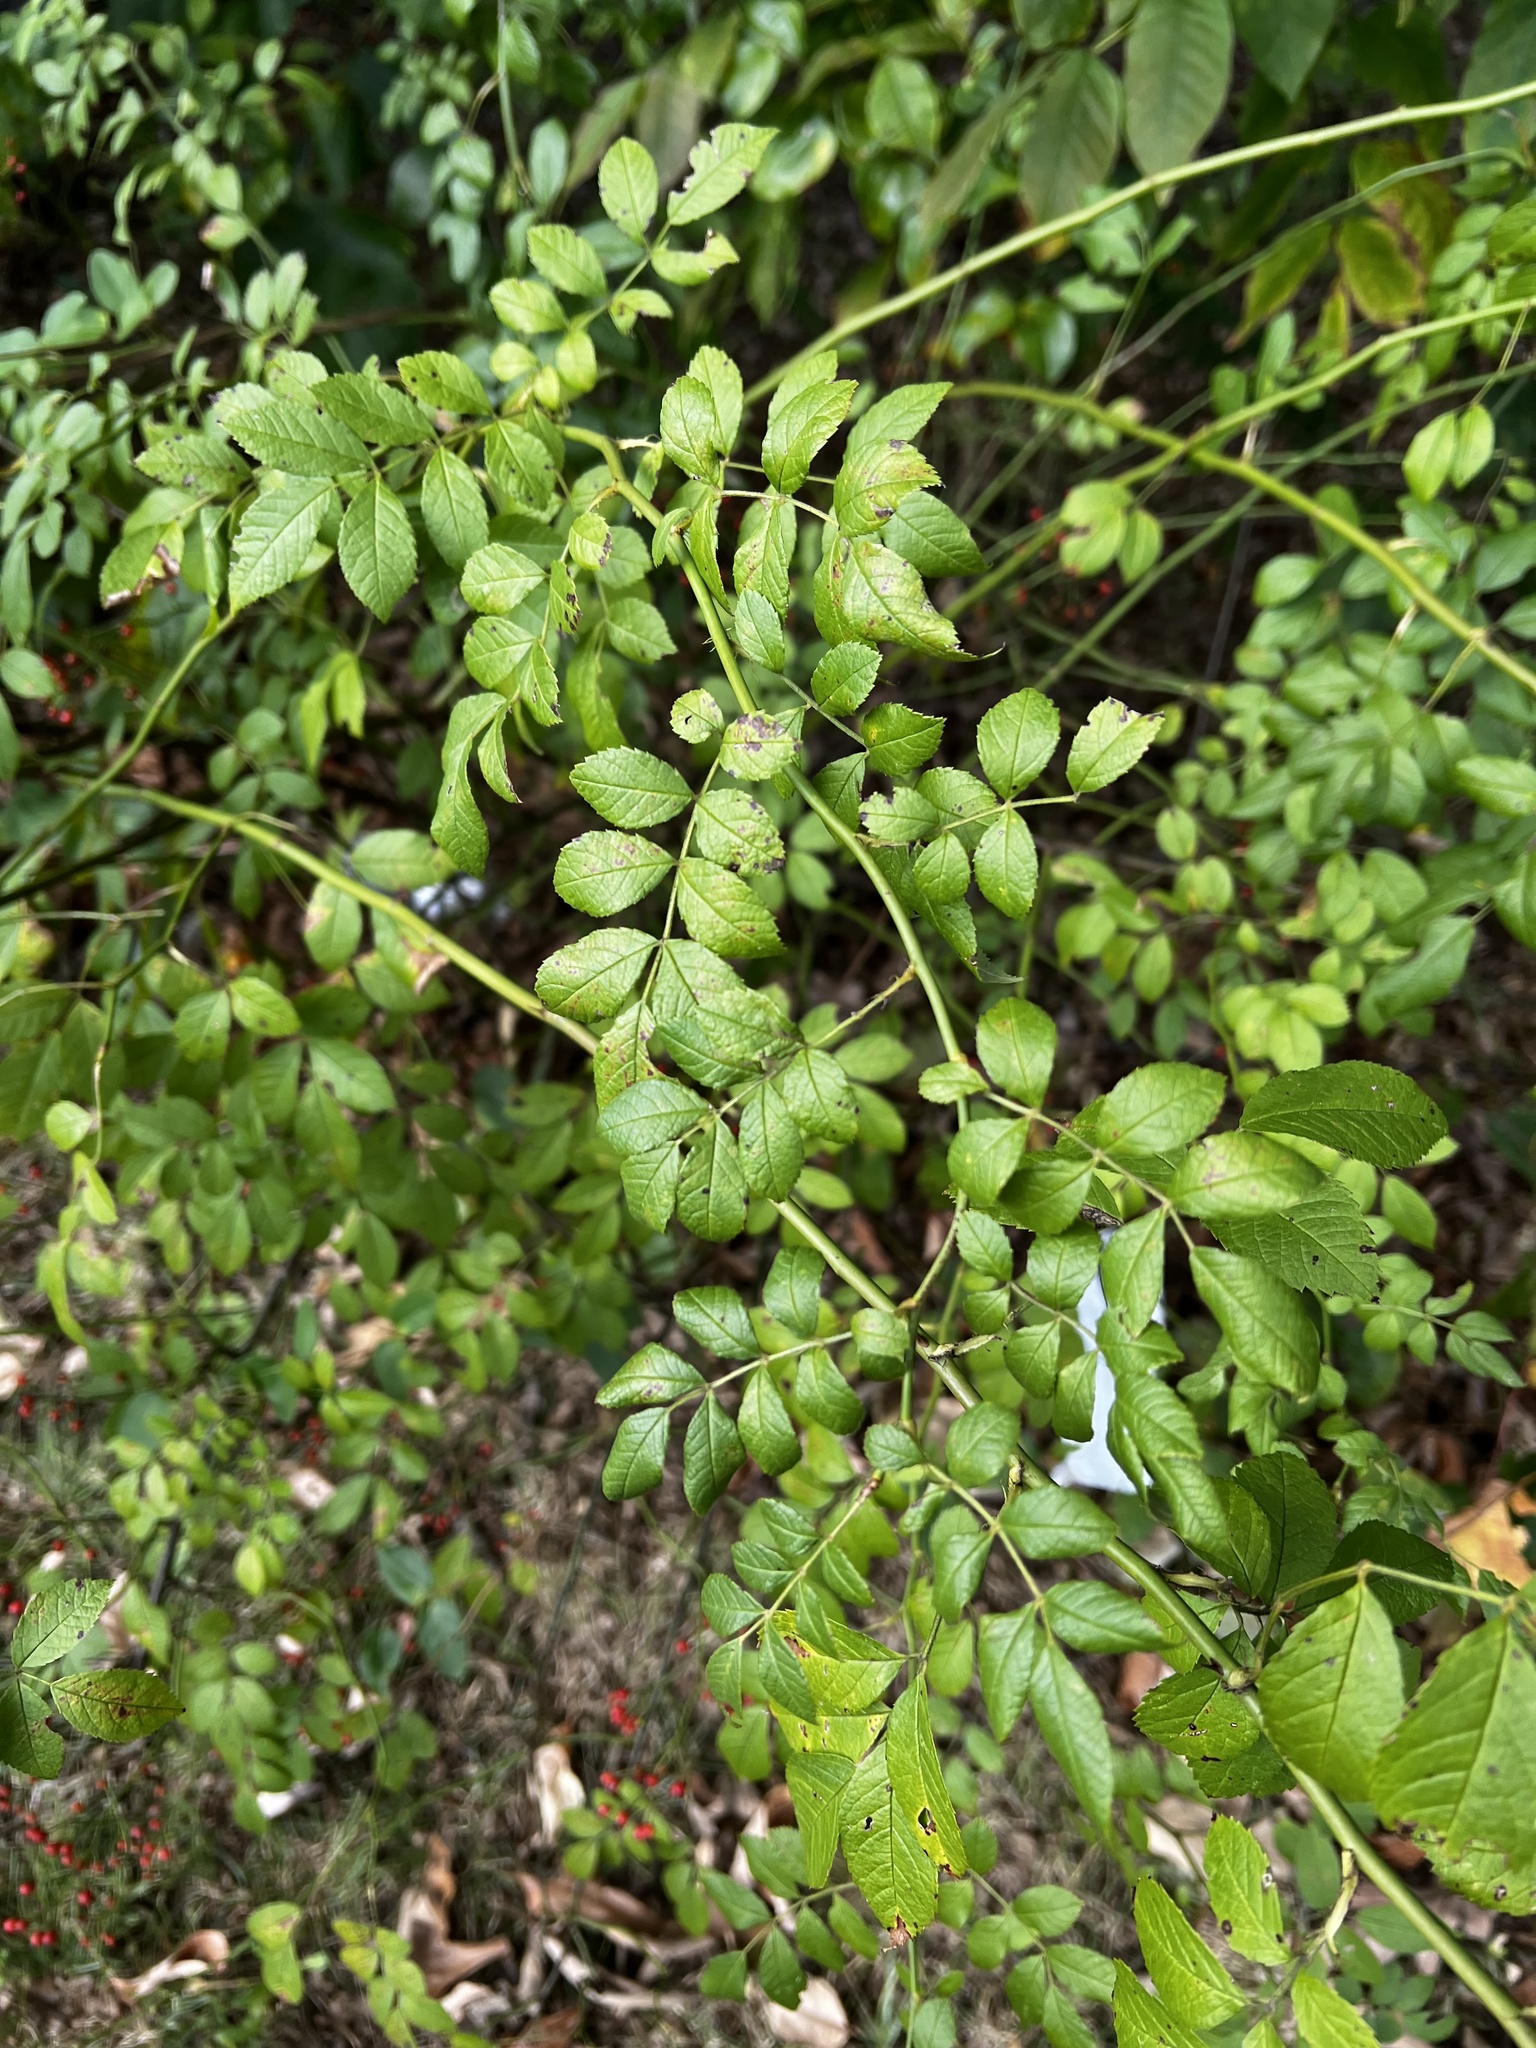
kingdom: Plantae
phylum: Tracheophyta
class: Magnoliopsida
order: Rosales
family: Rosaceae
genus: Rosa
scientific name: Rosa multiflora
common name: Multiflora rose
